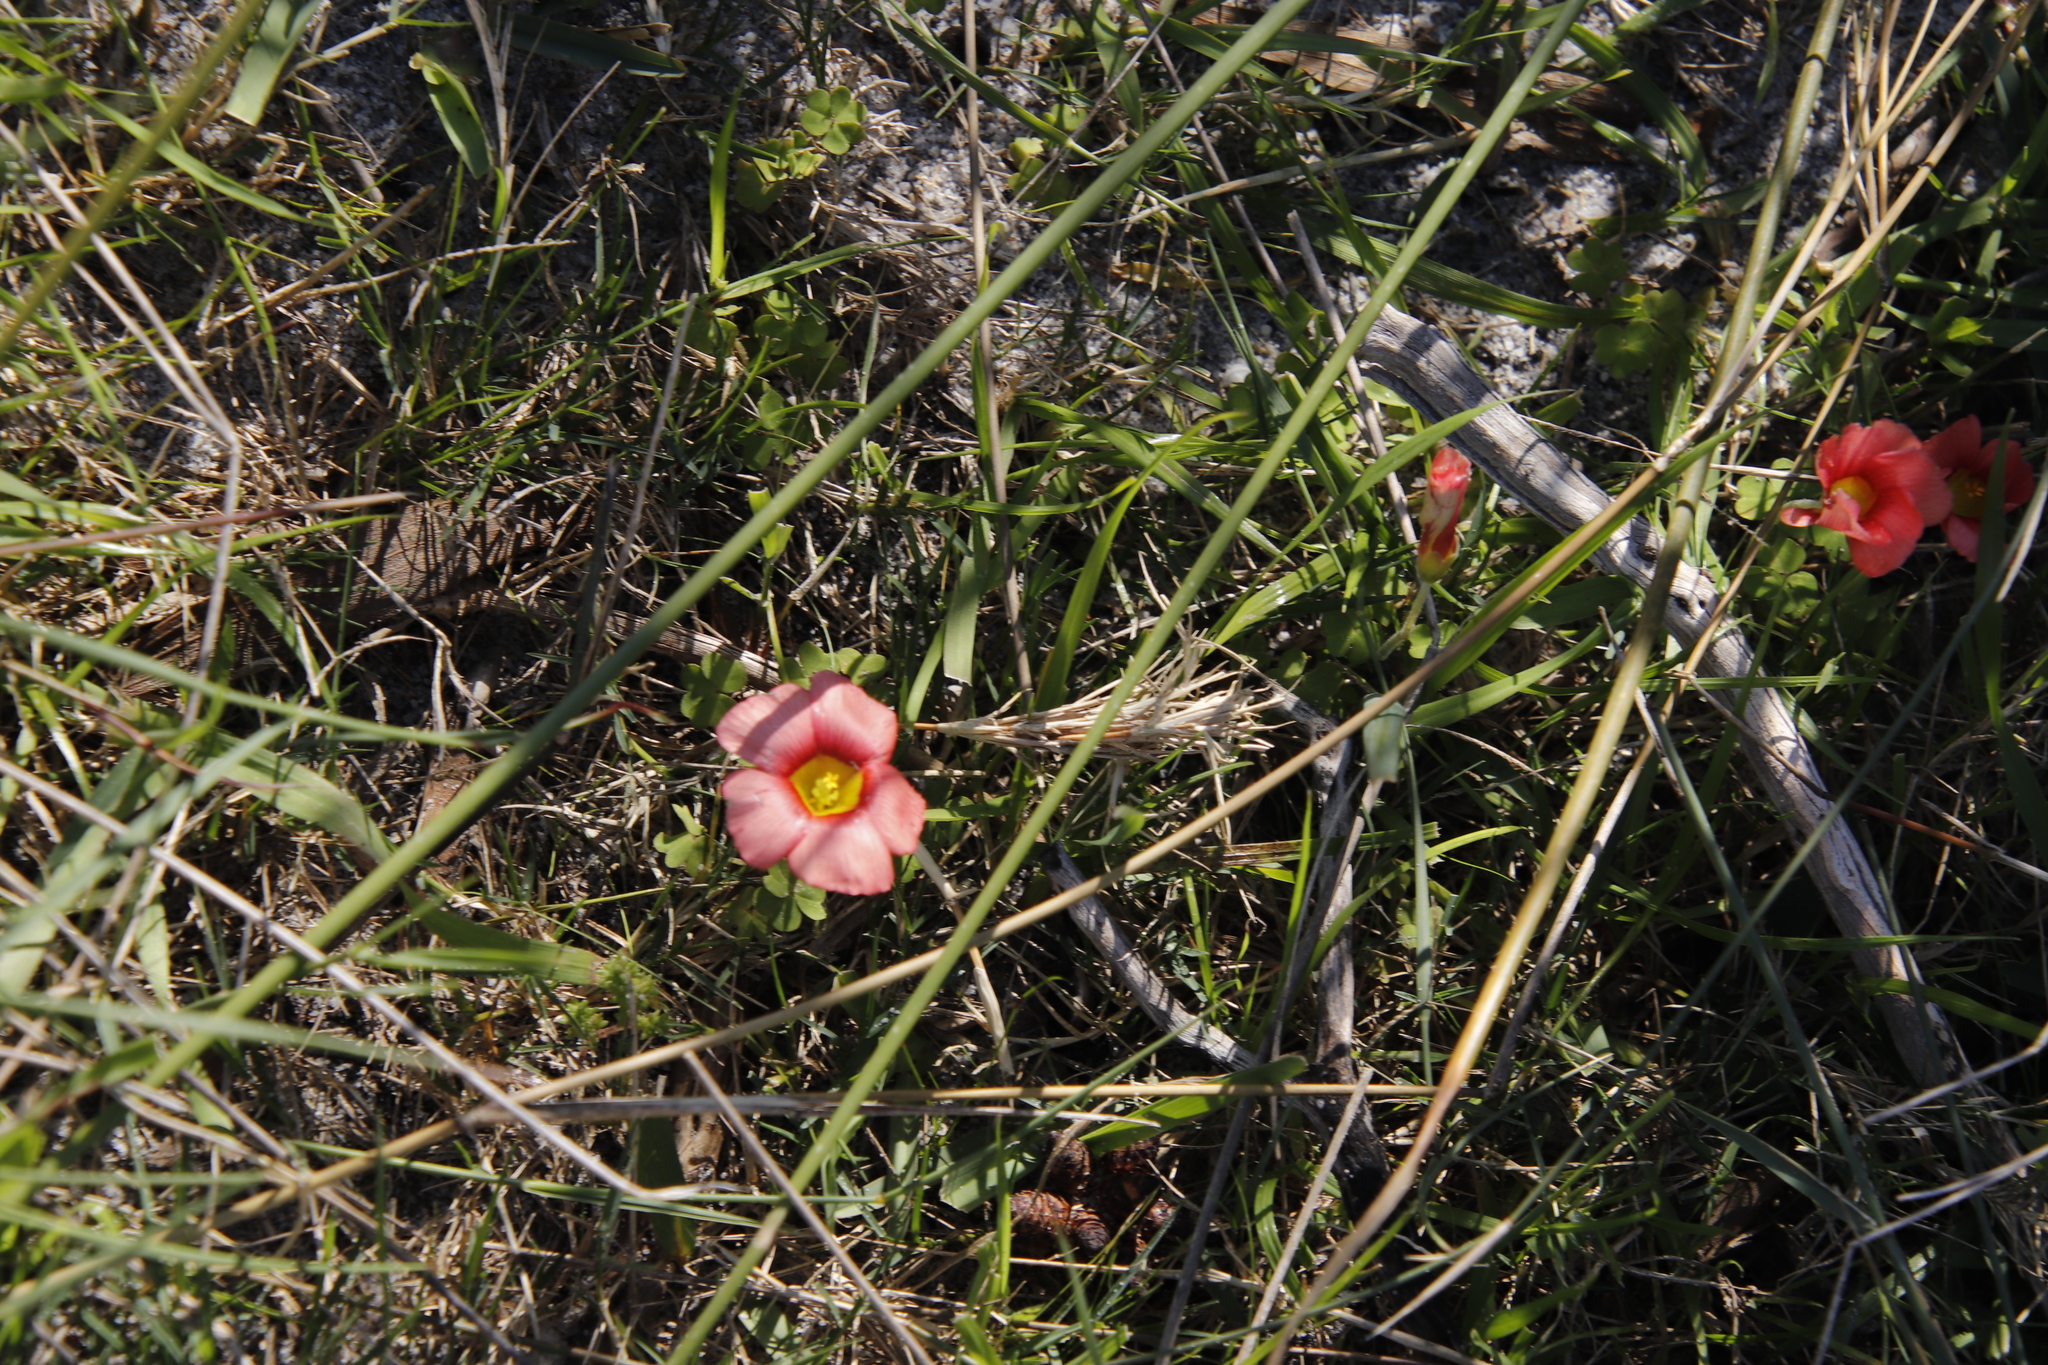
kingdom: Plantae
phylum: Tracheophyta
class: Magnoliopsida
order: Oxalidales
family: Oxalidaceae
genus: Oxalis
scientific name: Oxalis obtusa
